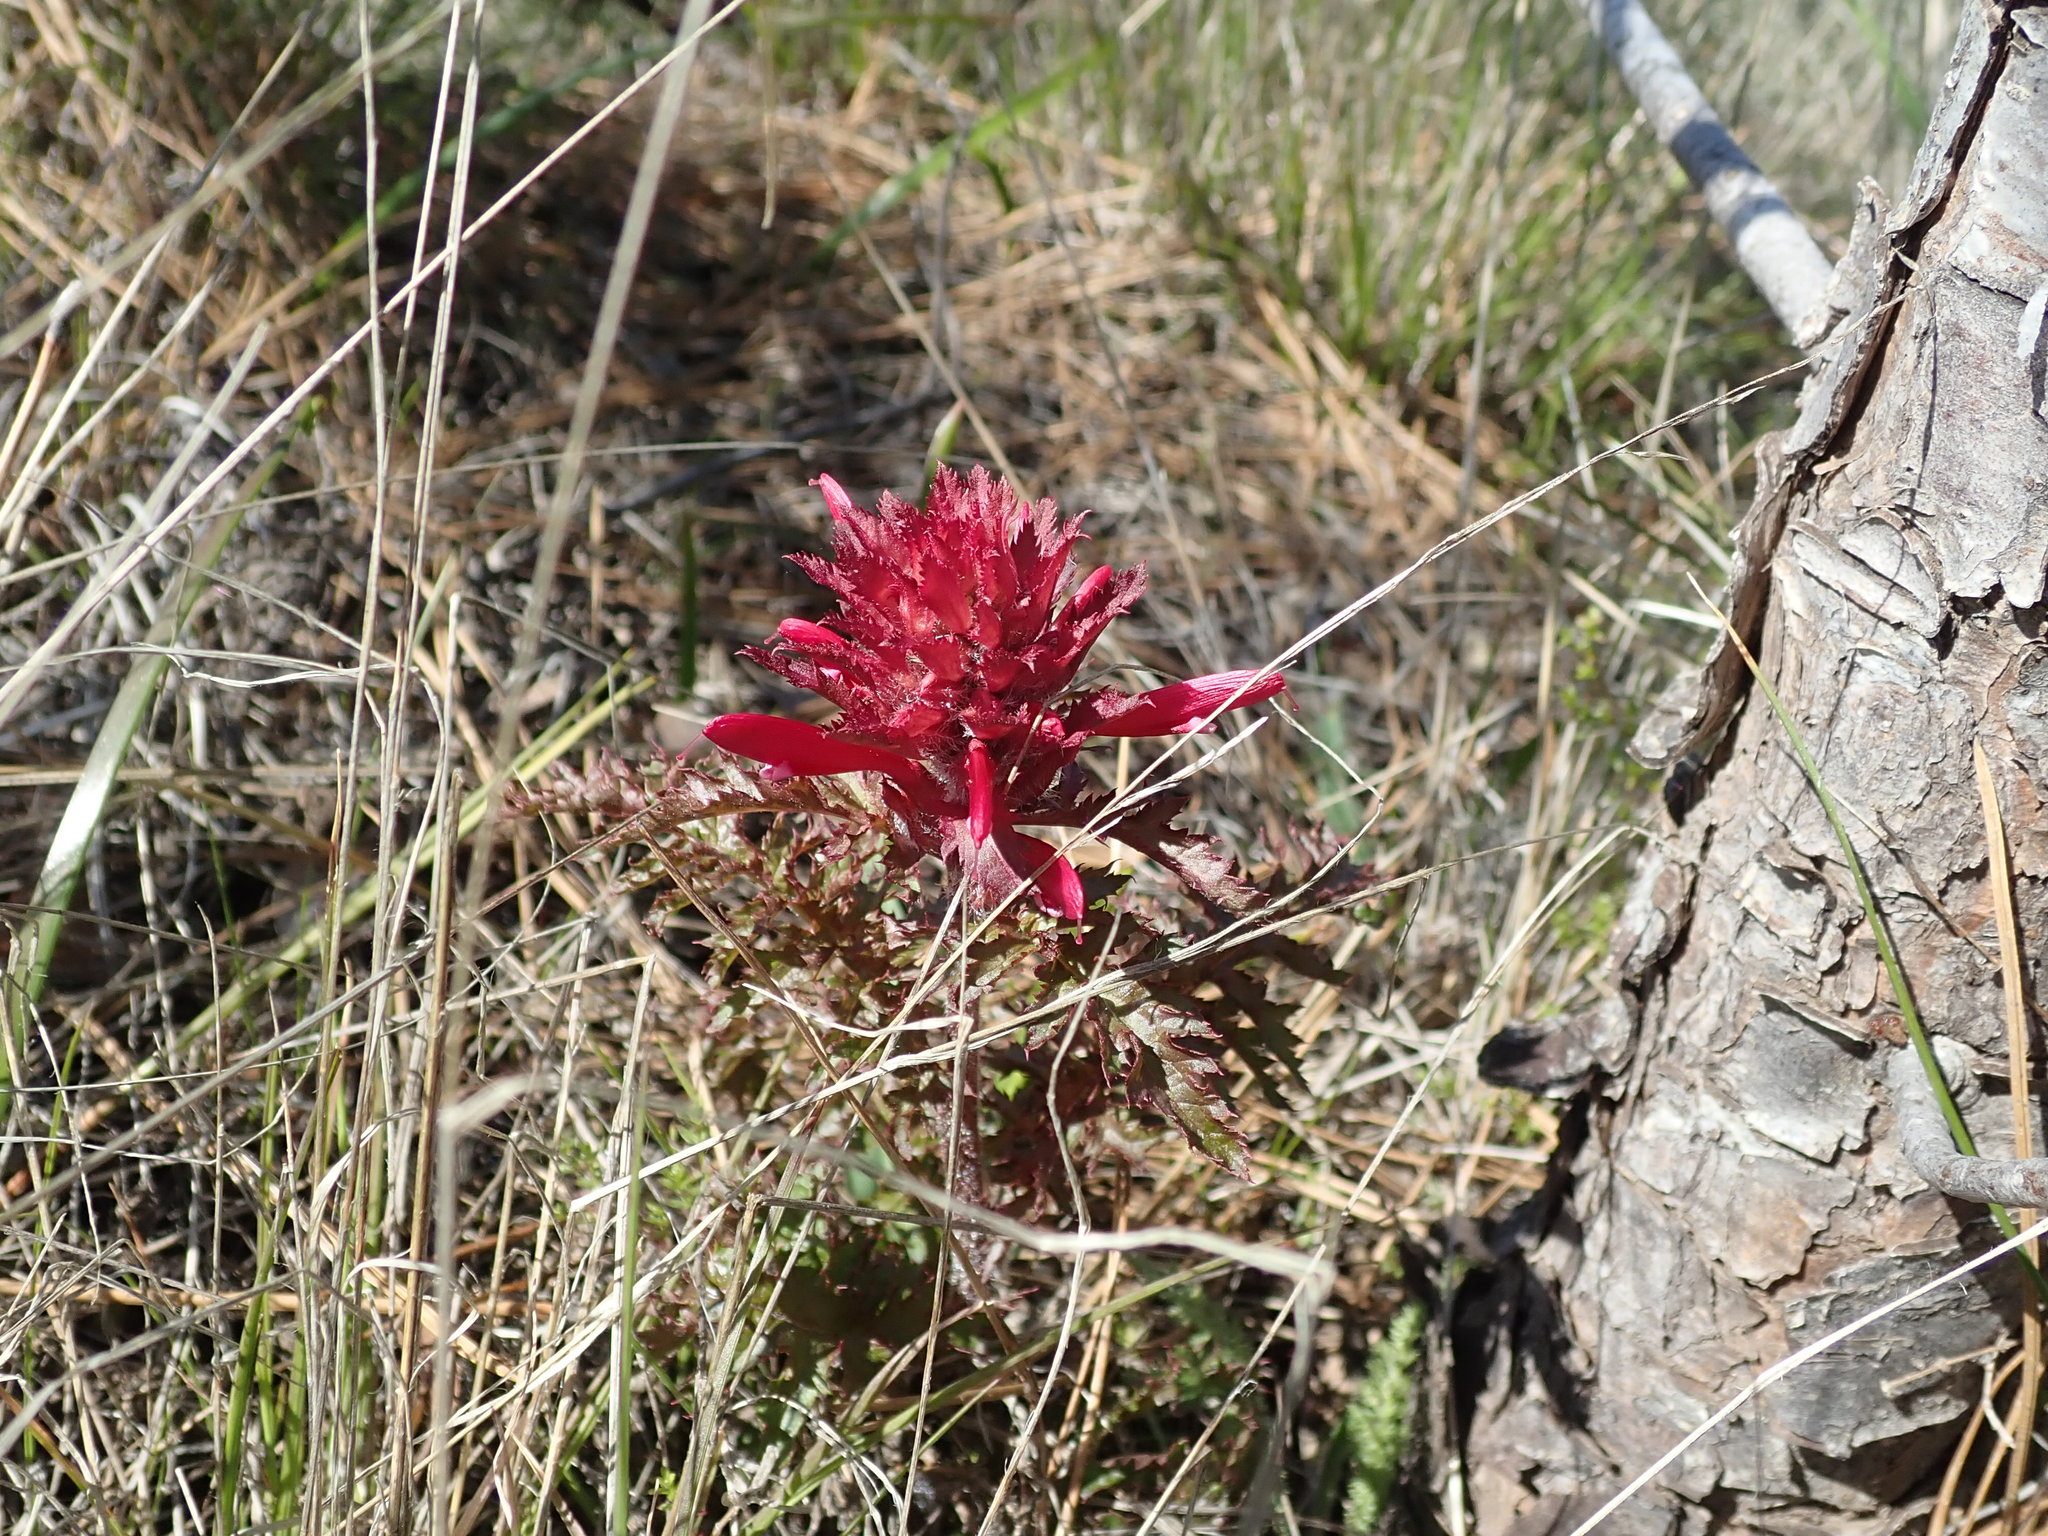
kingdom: Plantae
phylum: Tracheophyta
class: Magnoliopsida
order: Lamiales
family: Orobanchaceae
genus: Pedicularis
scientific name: Pedicularis densiflora
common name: Indian warrior
